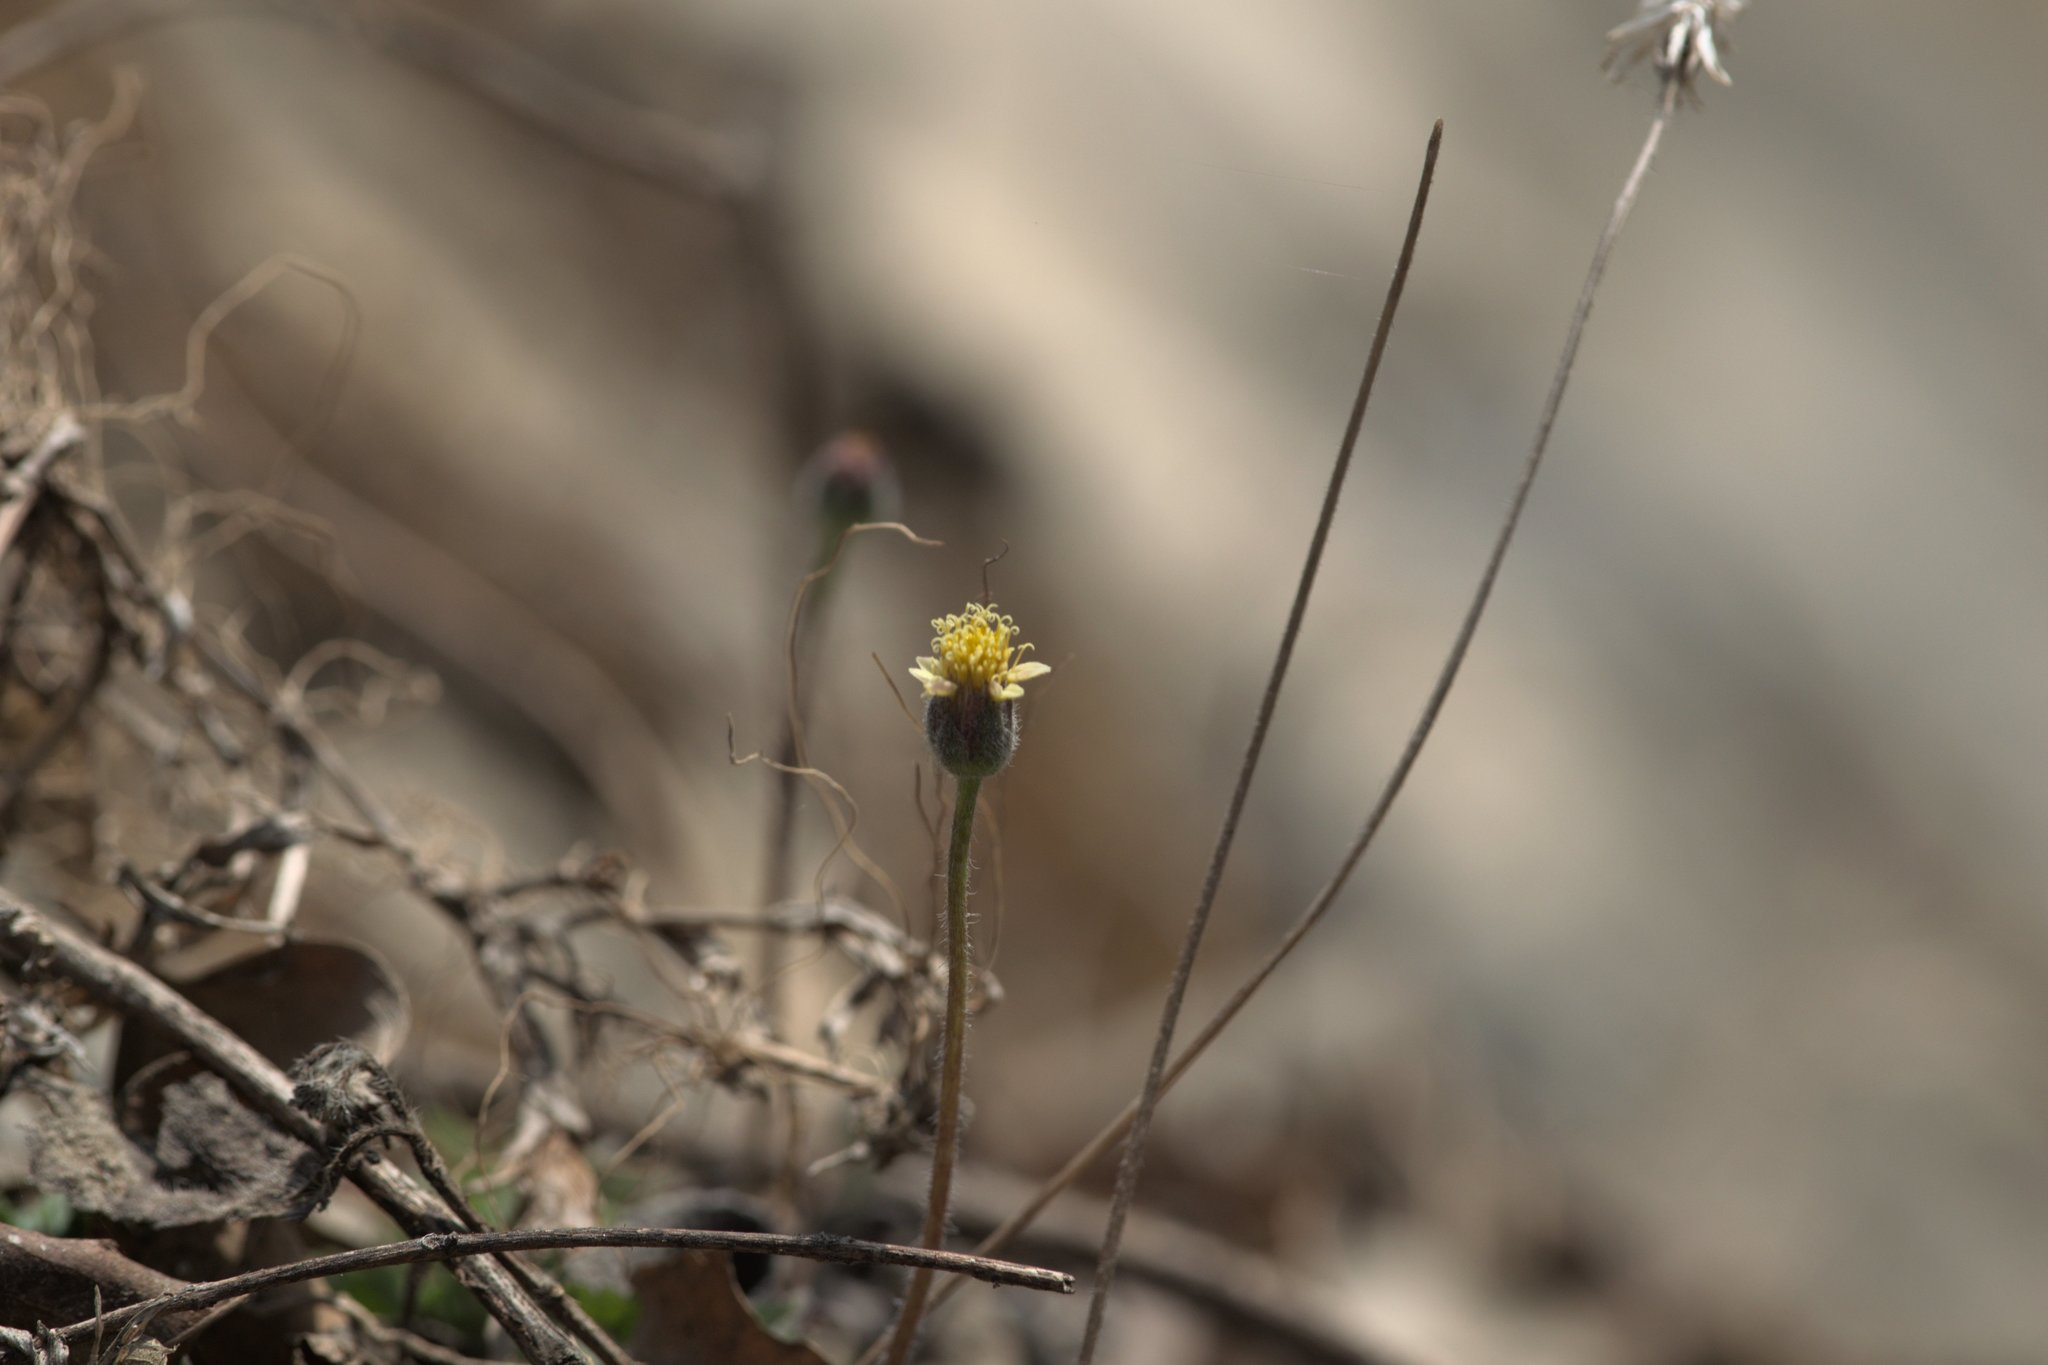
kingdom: Plantae
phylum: Tracheophyta
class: Magnoliopsida
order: Asterales
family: Asteraceae
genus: Tridax
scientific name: Tridax procumbens
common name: Coatbuttons
